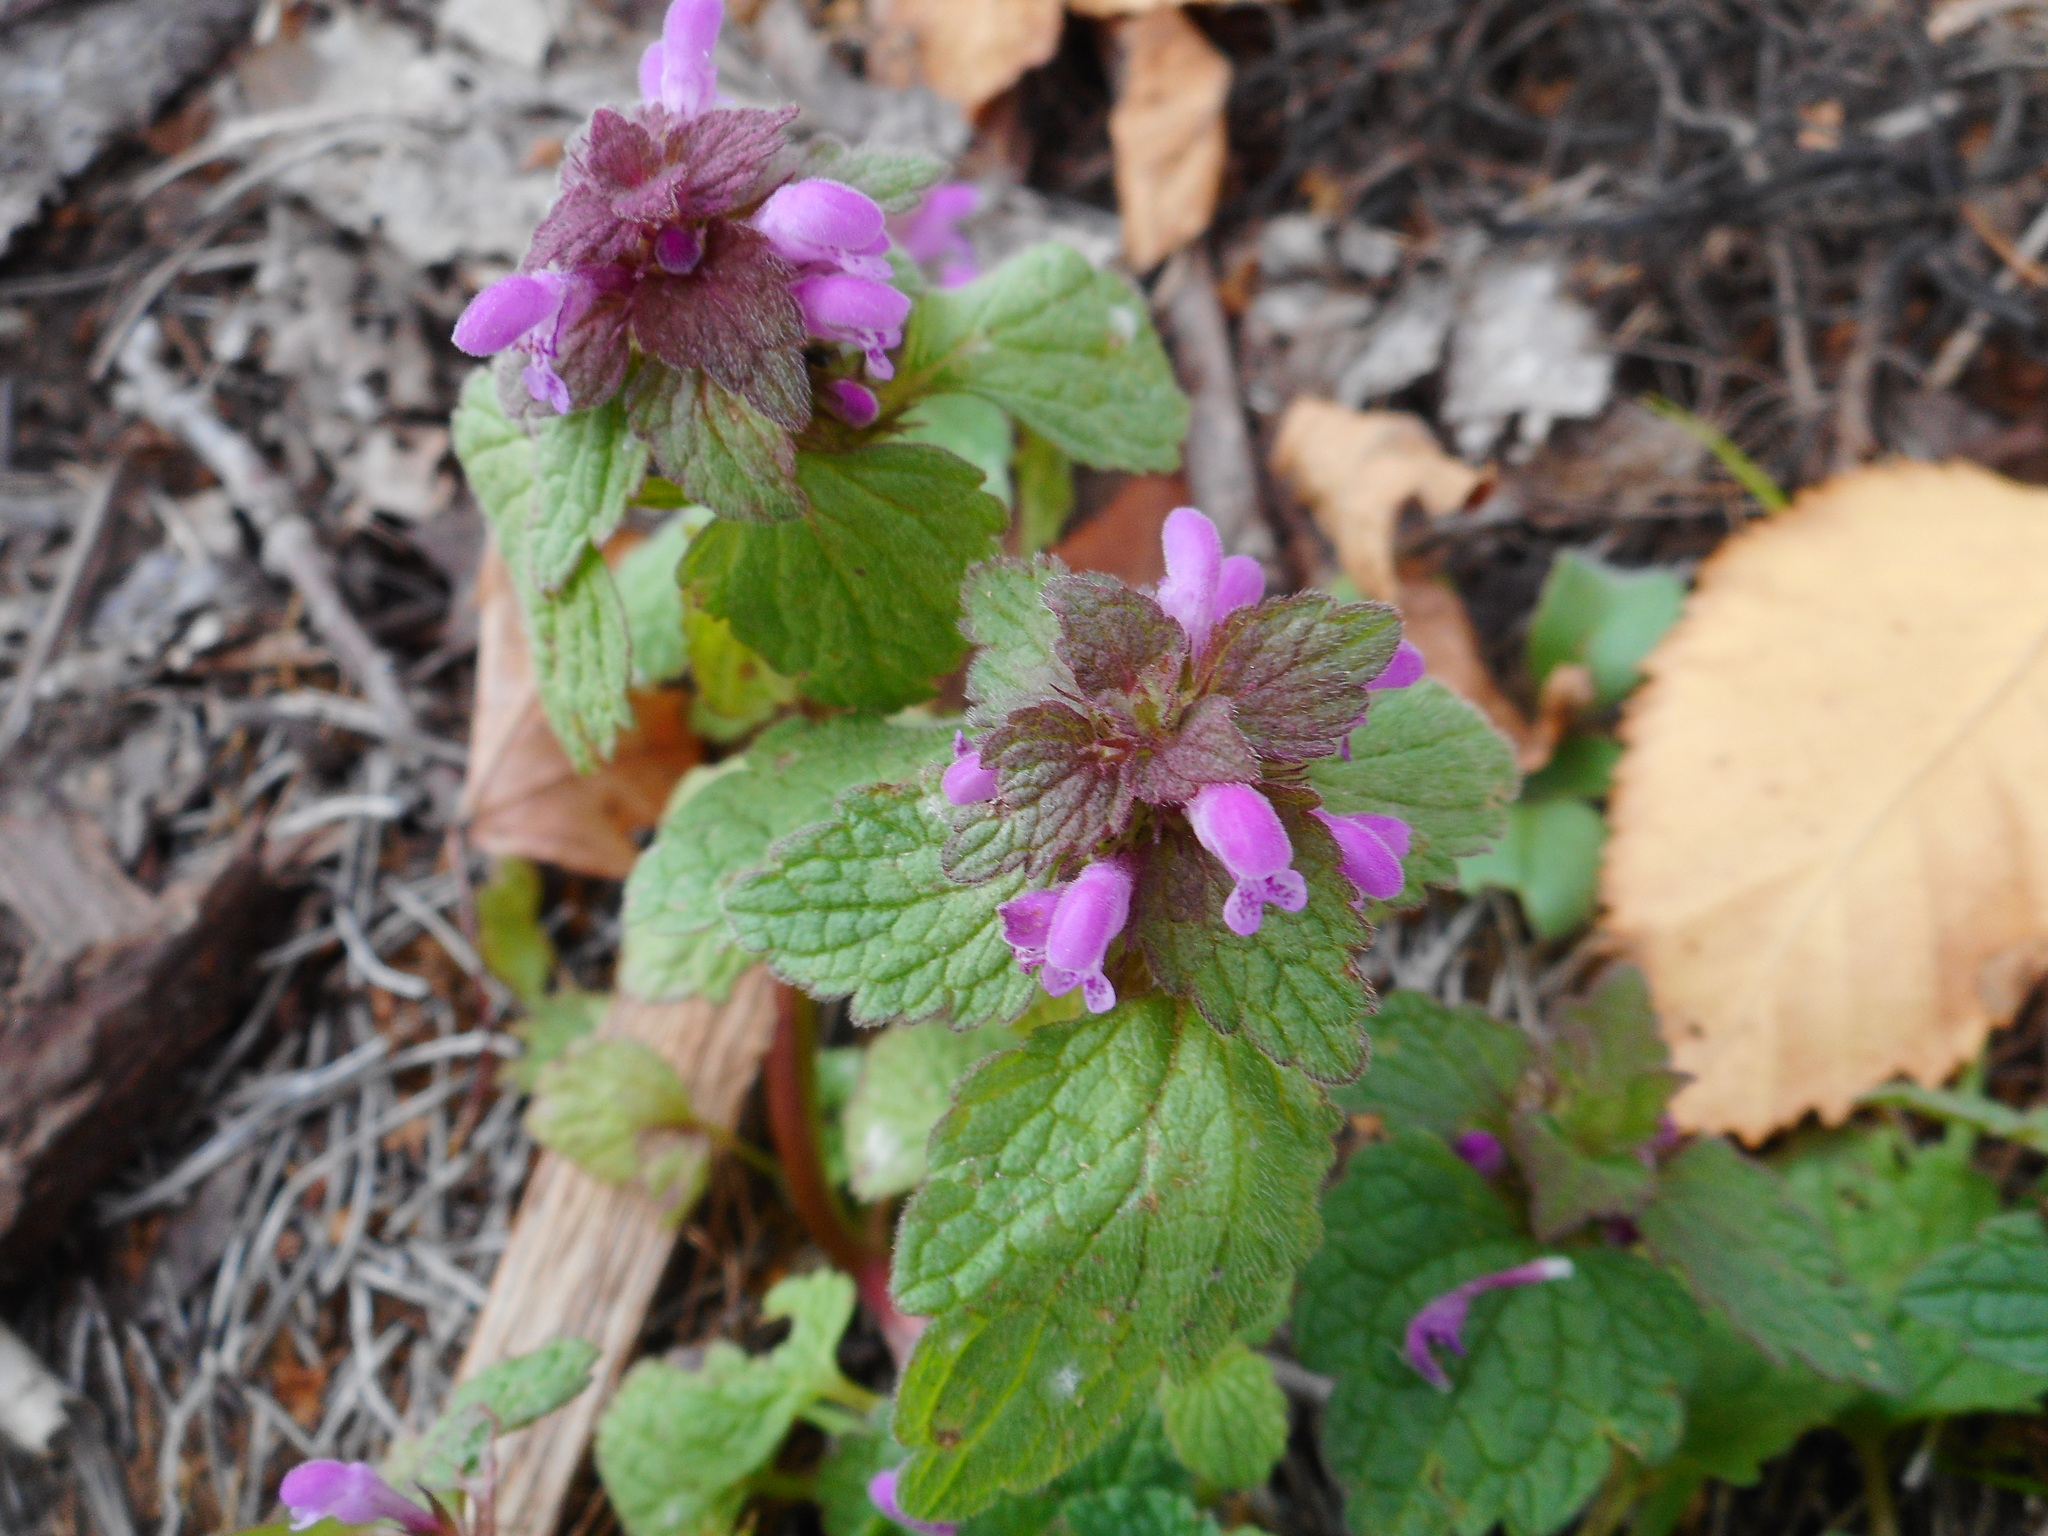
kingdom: Plantae
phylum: Tracheophyta
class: Magnoliopsida
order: Lamiales
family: Lamiaceae
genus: Lamium
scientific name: Lamium purpureum
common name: Red dead-nettle
